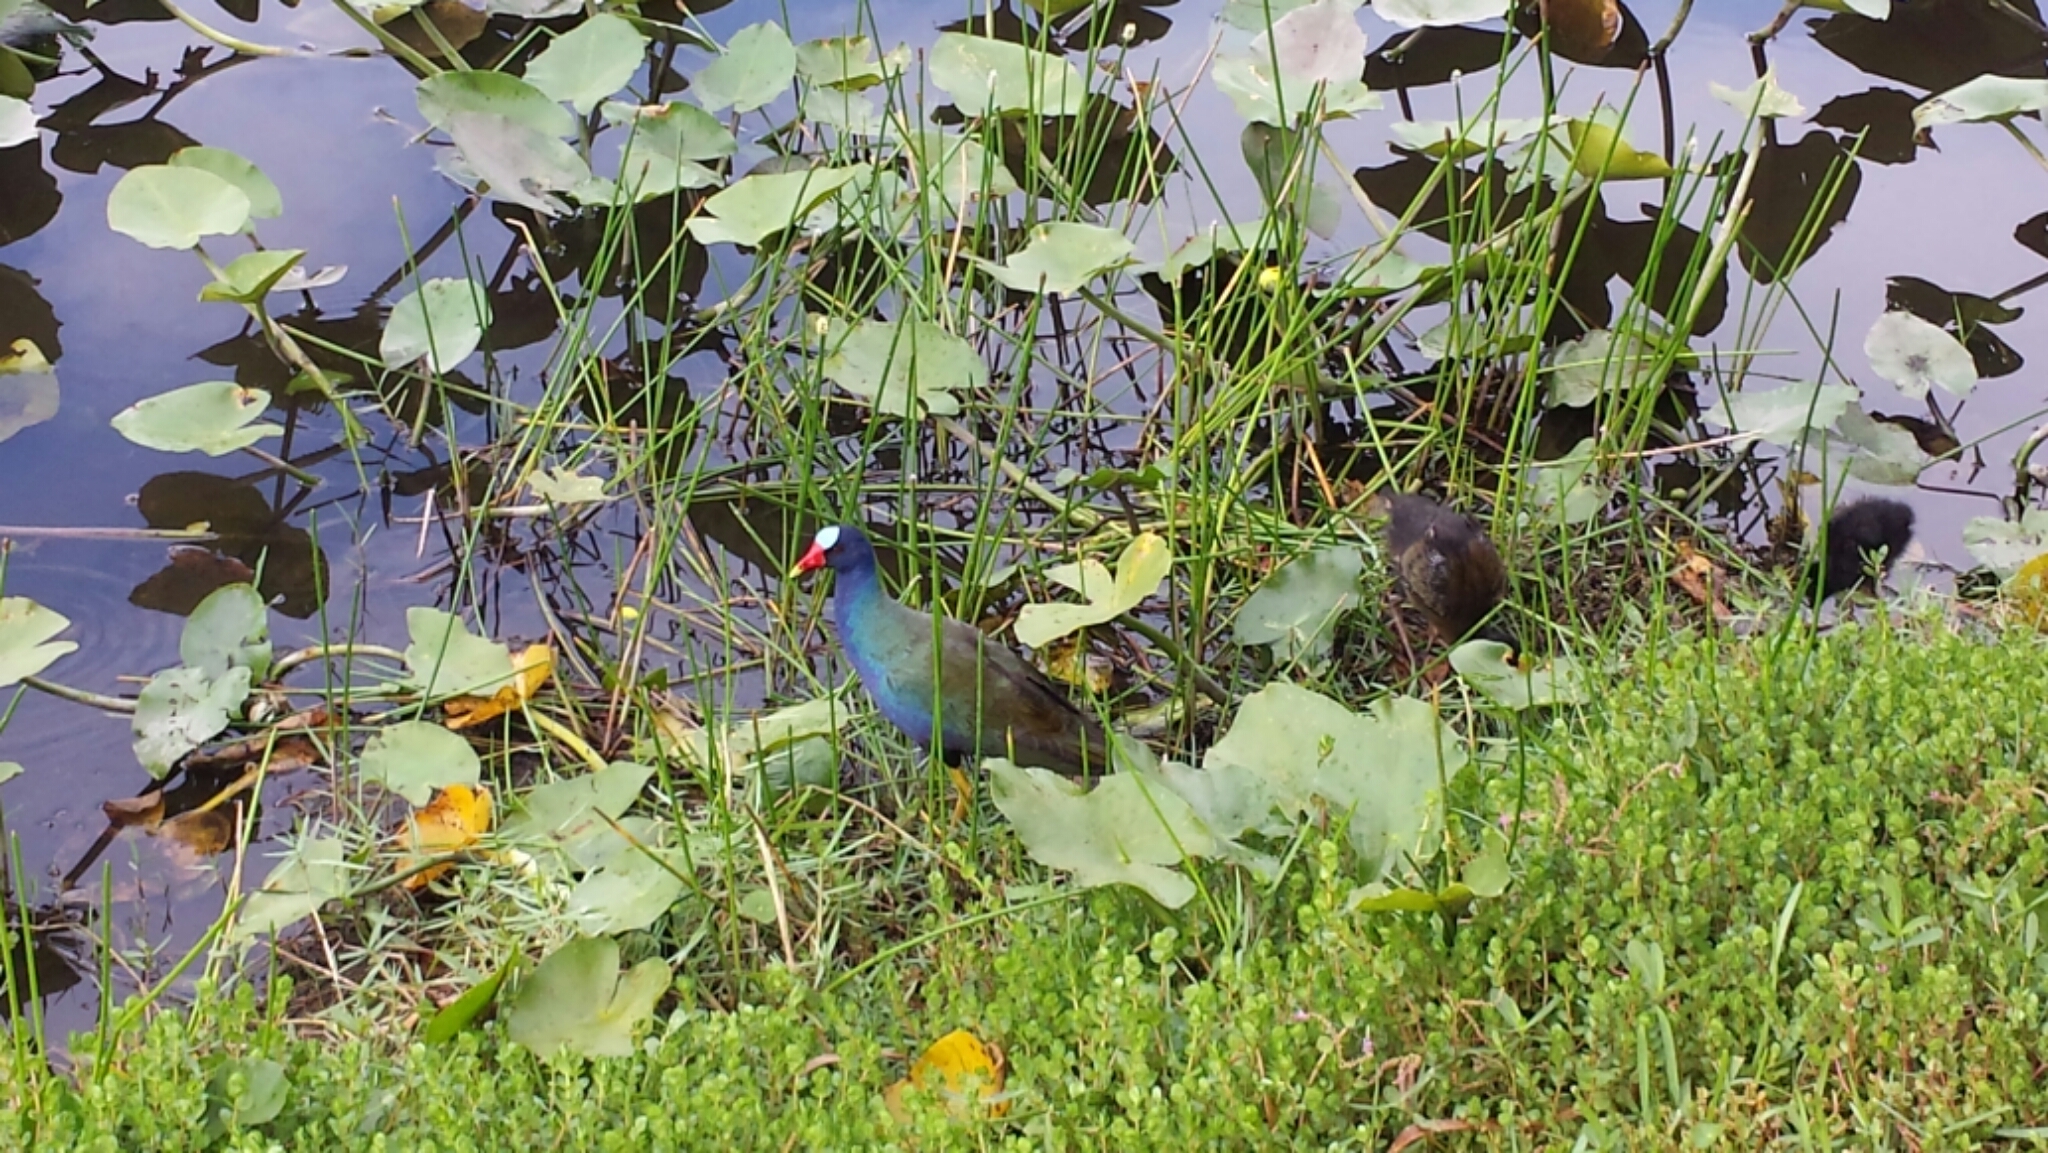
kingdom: Animalia
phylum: Chordata
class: Aves
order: Gruiformes
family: Rallidae
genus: Porphyrio
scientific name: Porphyrio martinica
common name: Purple gallinule
